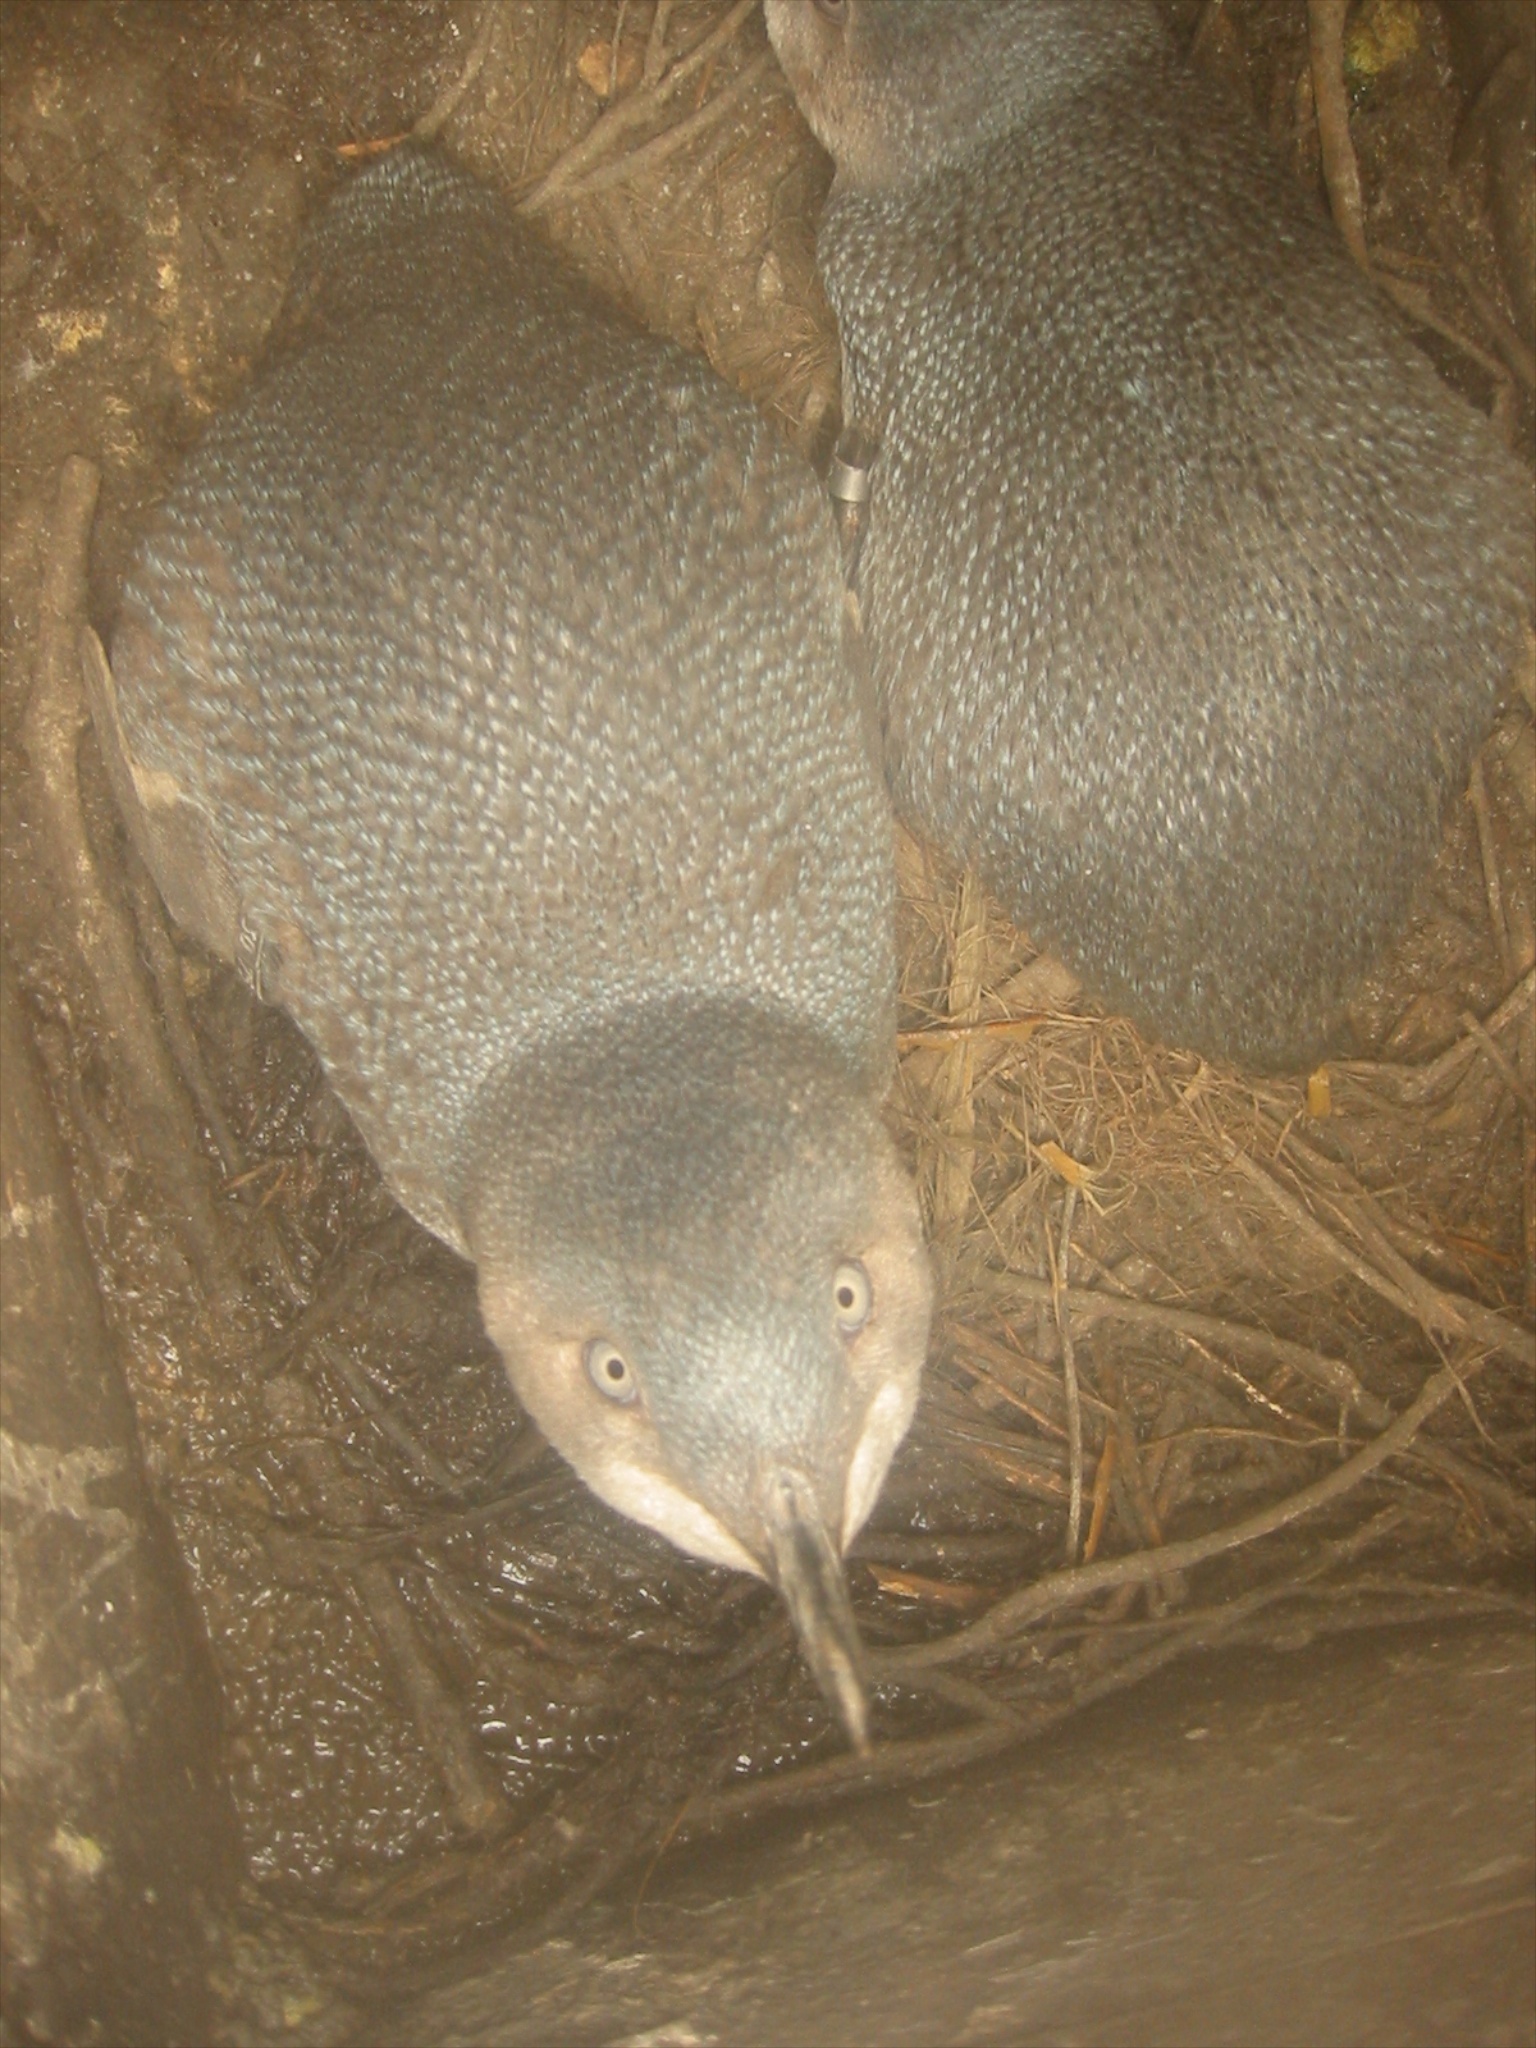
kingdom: Animalia
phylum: Chordata
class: Aves
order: Sphenisciformes
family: Spheniscidae
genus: Eudyptula
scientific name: Eudyptula minor
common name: Little penguin
